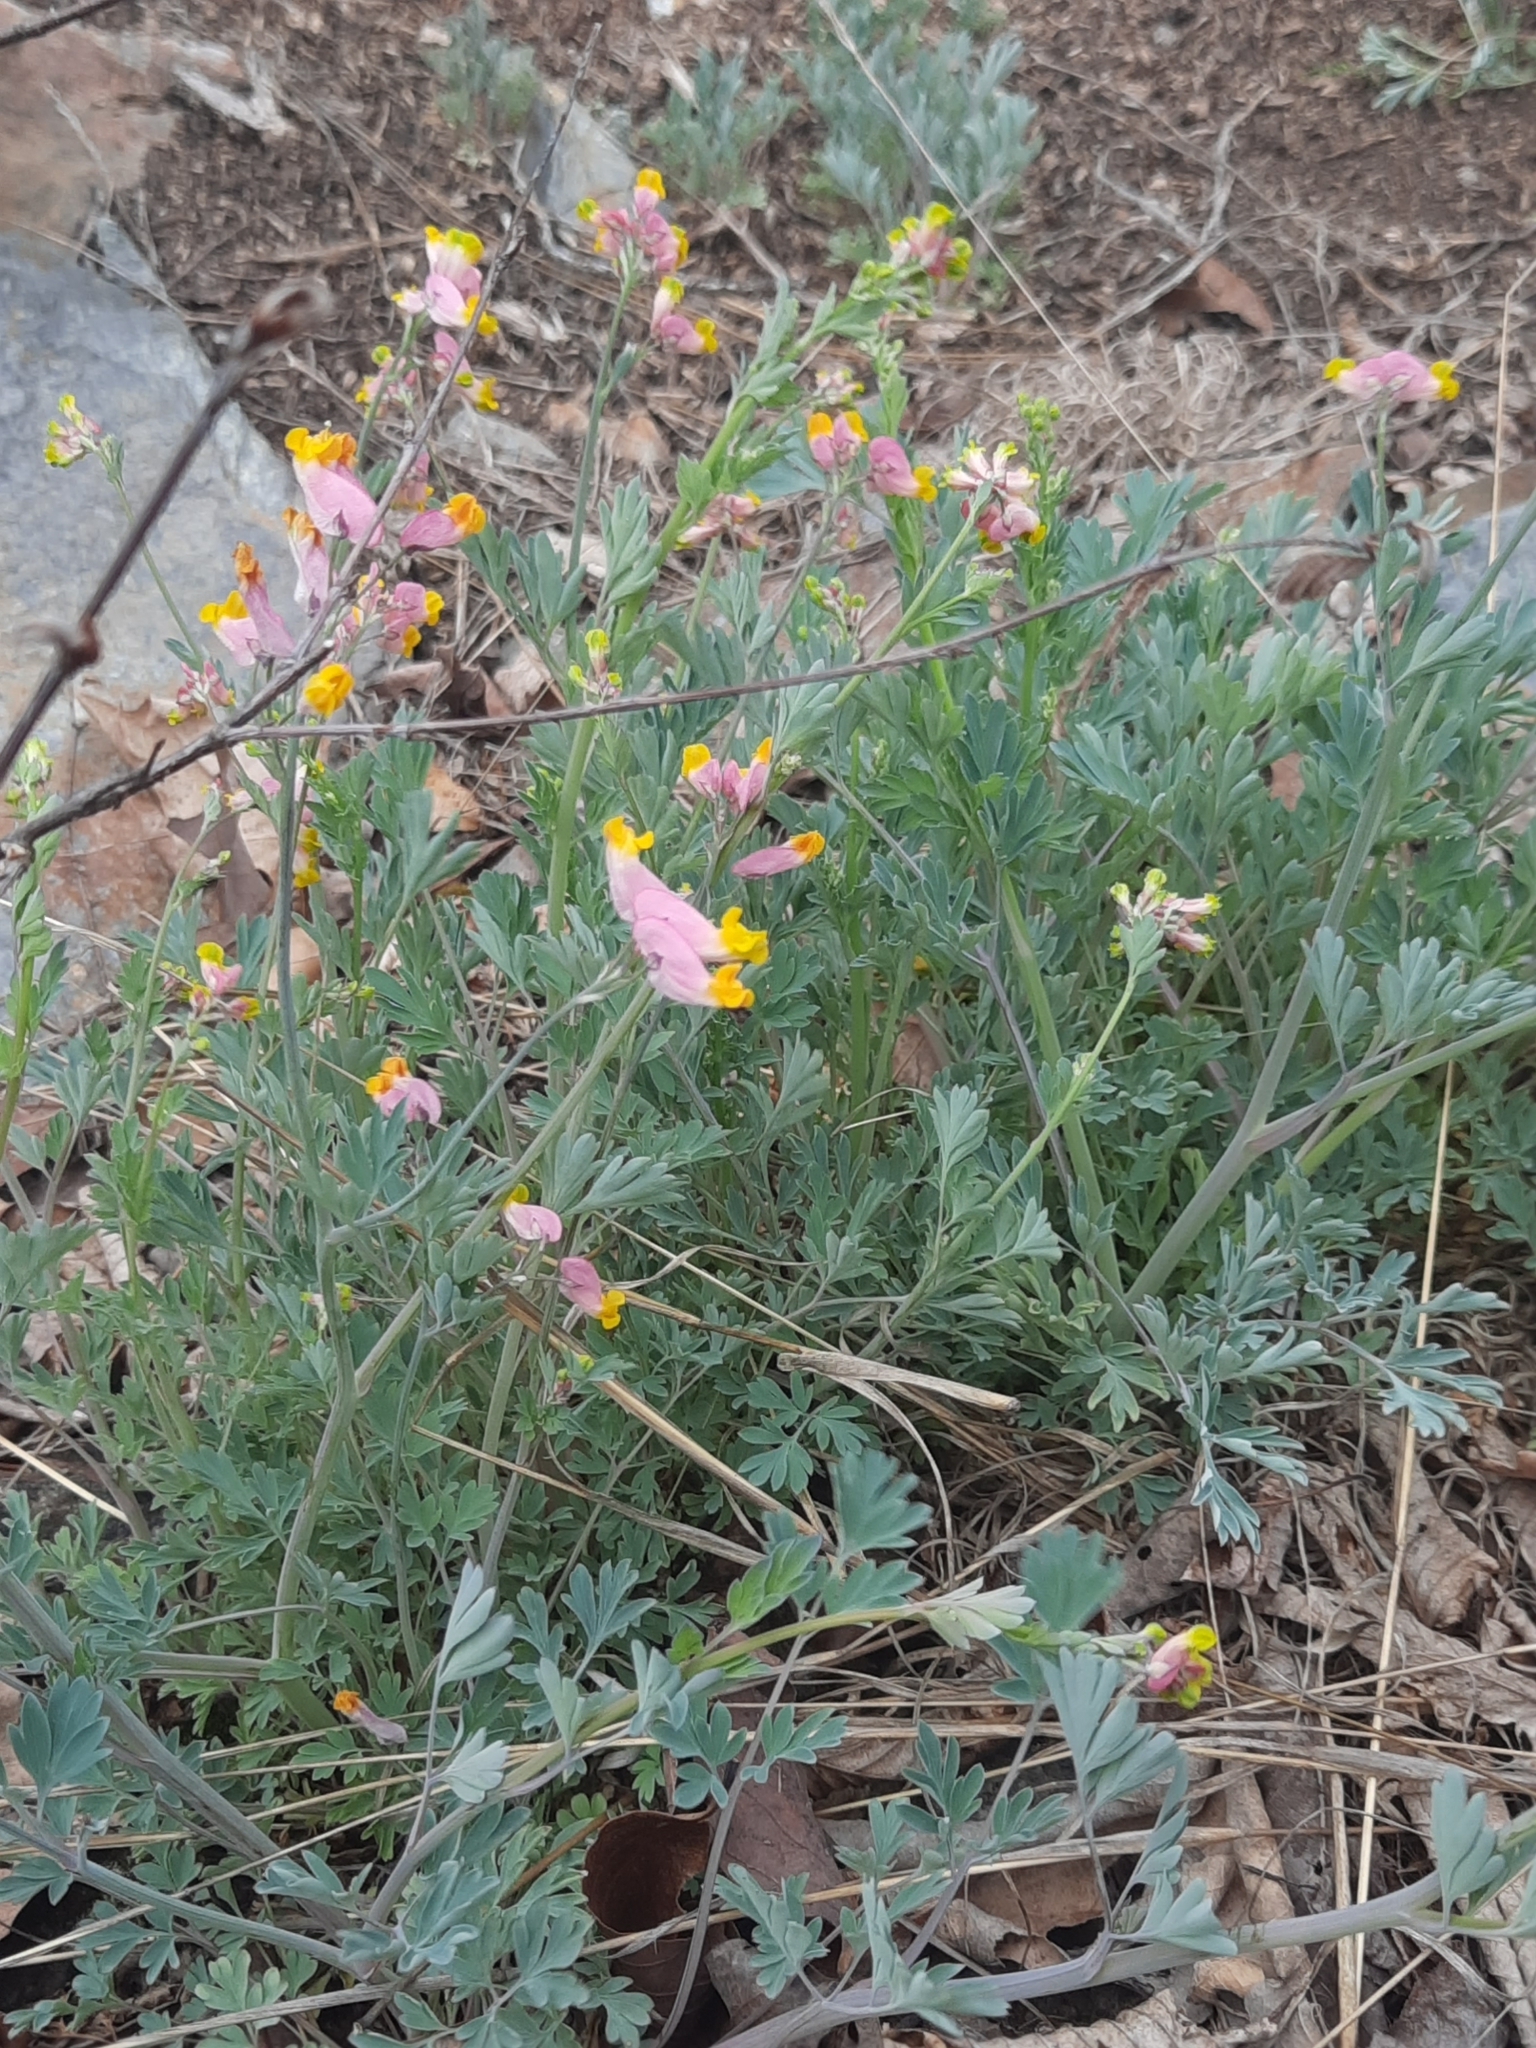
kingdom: Plantae
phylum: Tracheophyta
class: Magnoliopsida
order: Ranunculales
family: Papaveraceae
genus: Capnoides
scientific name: Capnoides sempervirens
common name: Rock harlequin
